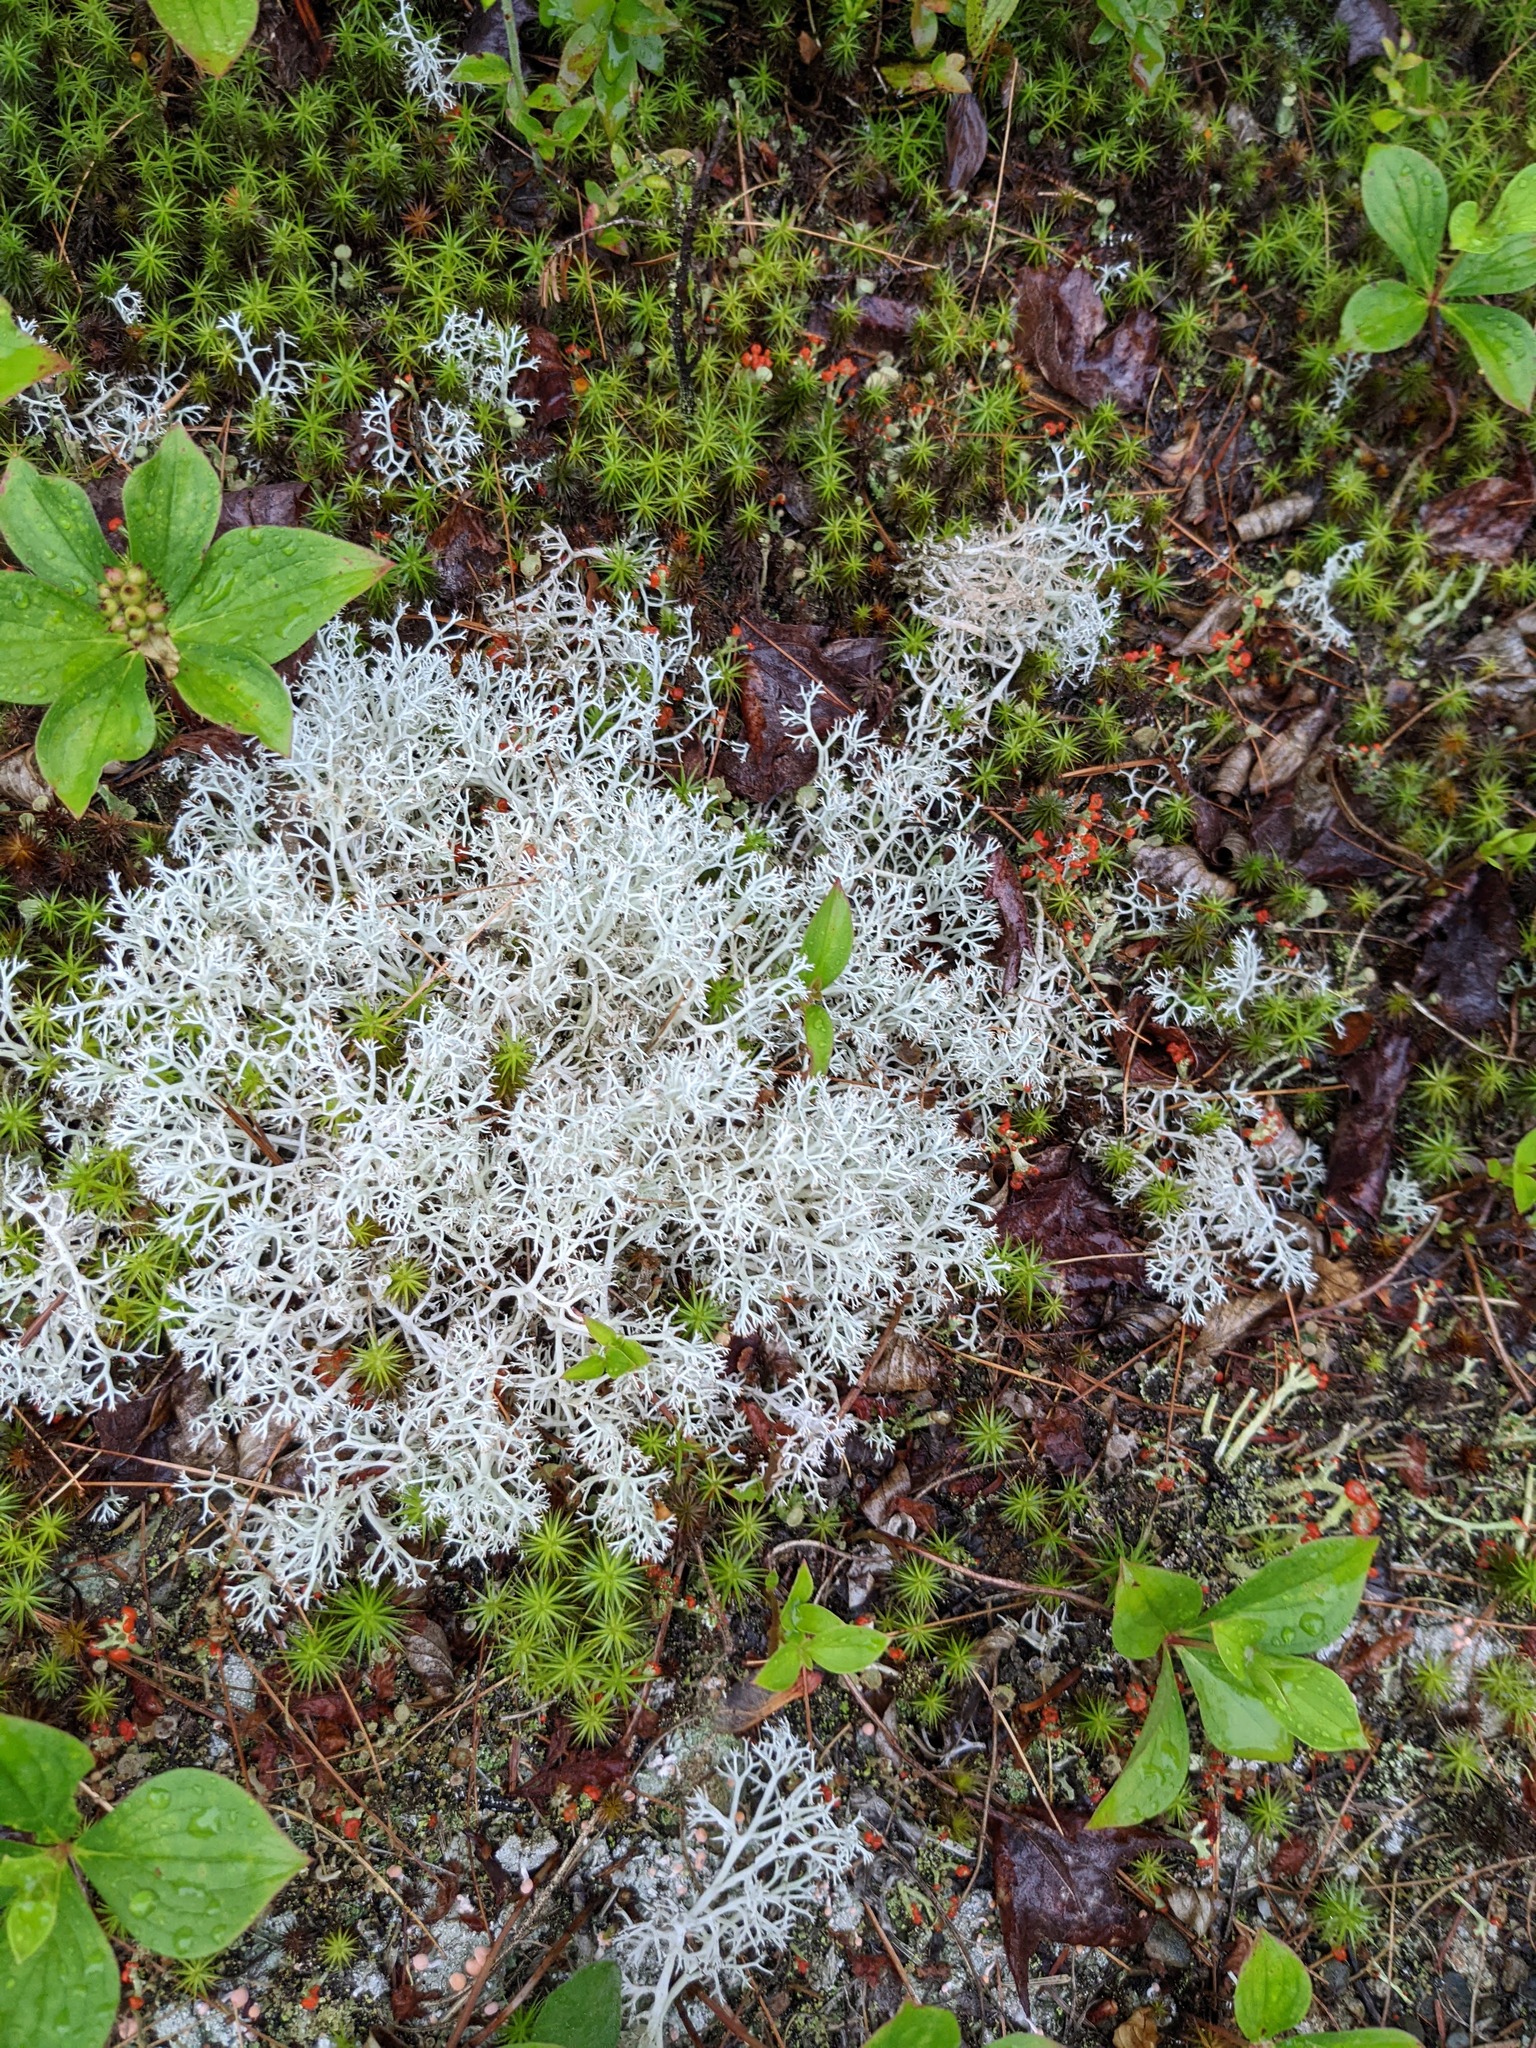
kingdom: Plantae
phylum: Tracheophyta
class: Magnoliopsida
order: Cornales
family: Cornaceae
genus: Cornus
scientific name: Cornus canadensis
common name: Creeping dogwood
